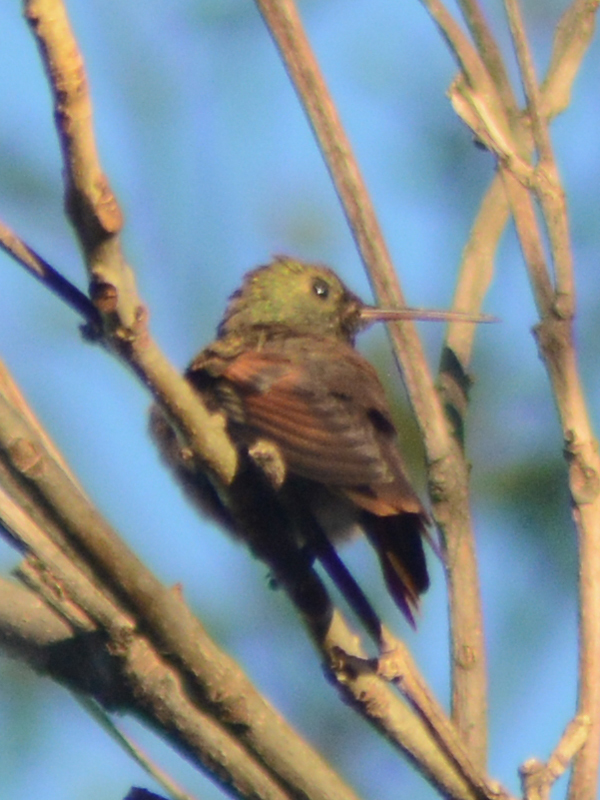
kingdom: Animalia
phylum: Chordata
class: Aves
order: Apodiformes
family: Trochilidae
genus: Saucerottia
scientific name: Saucerottia beryllina
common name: Berylline hummingbird
